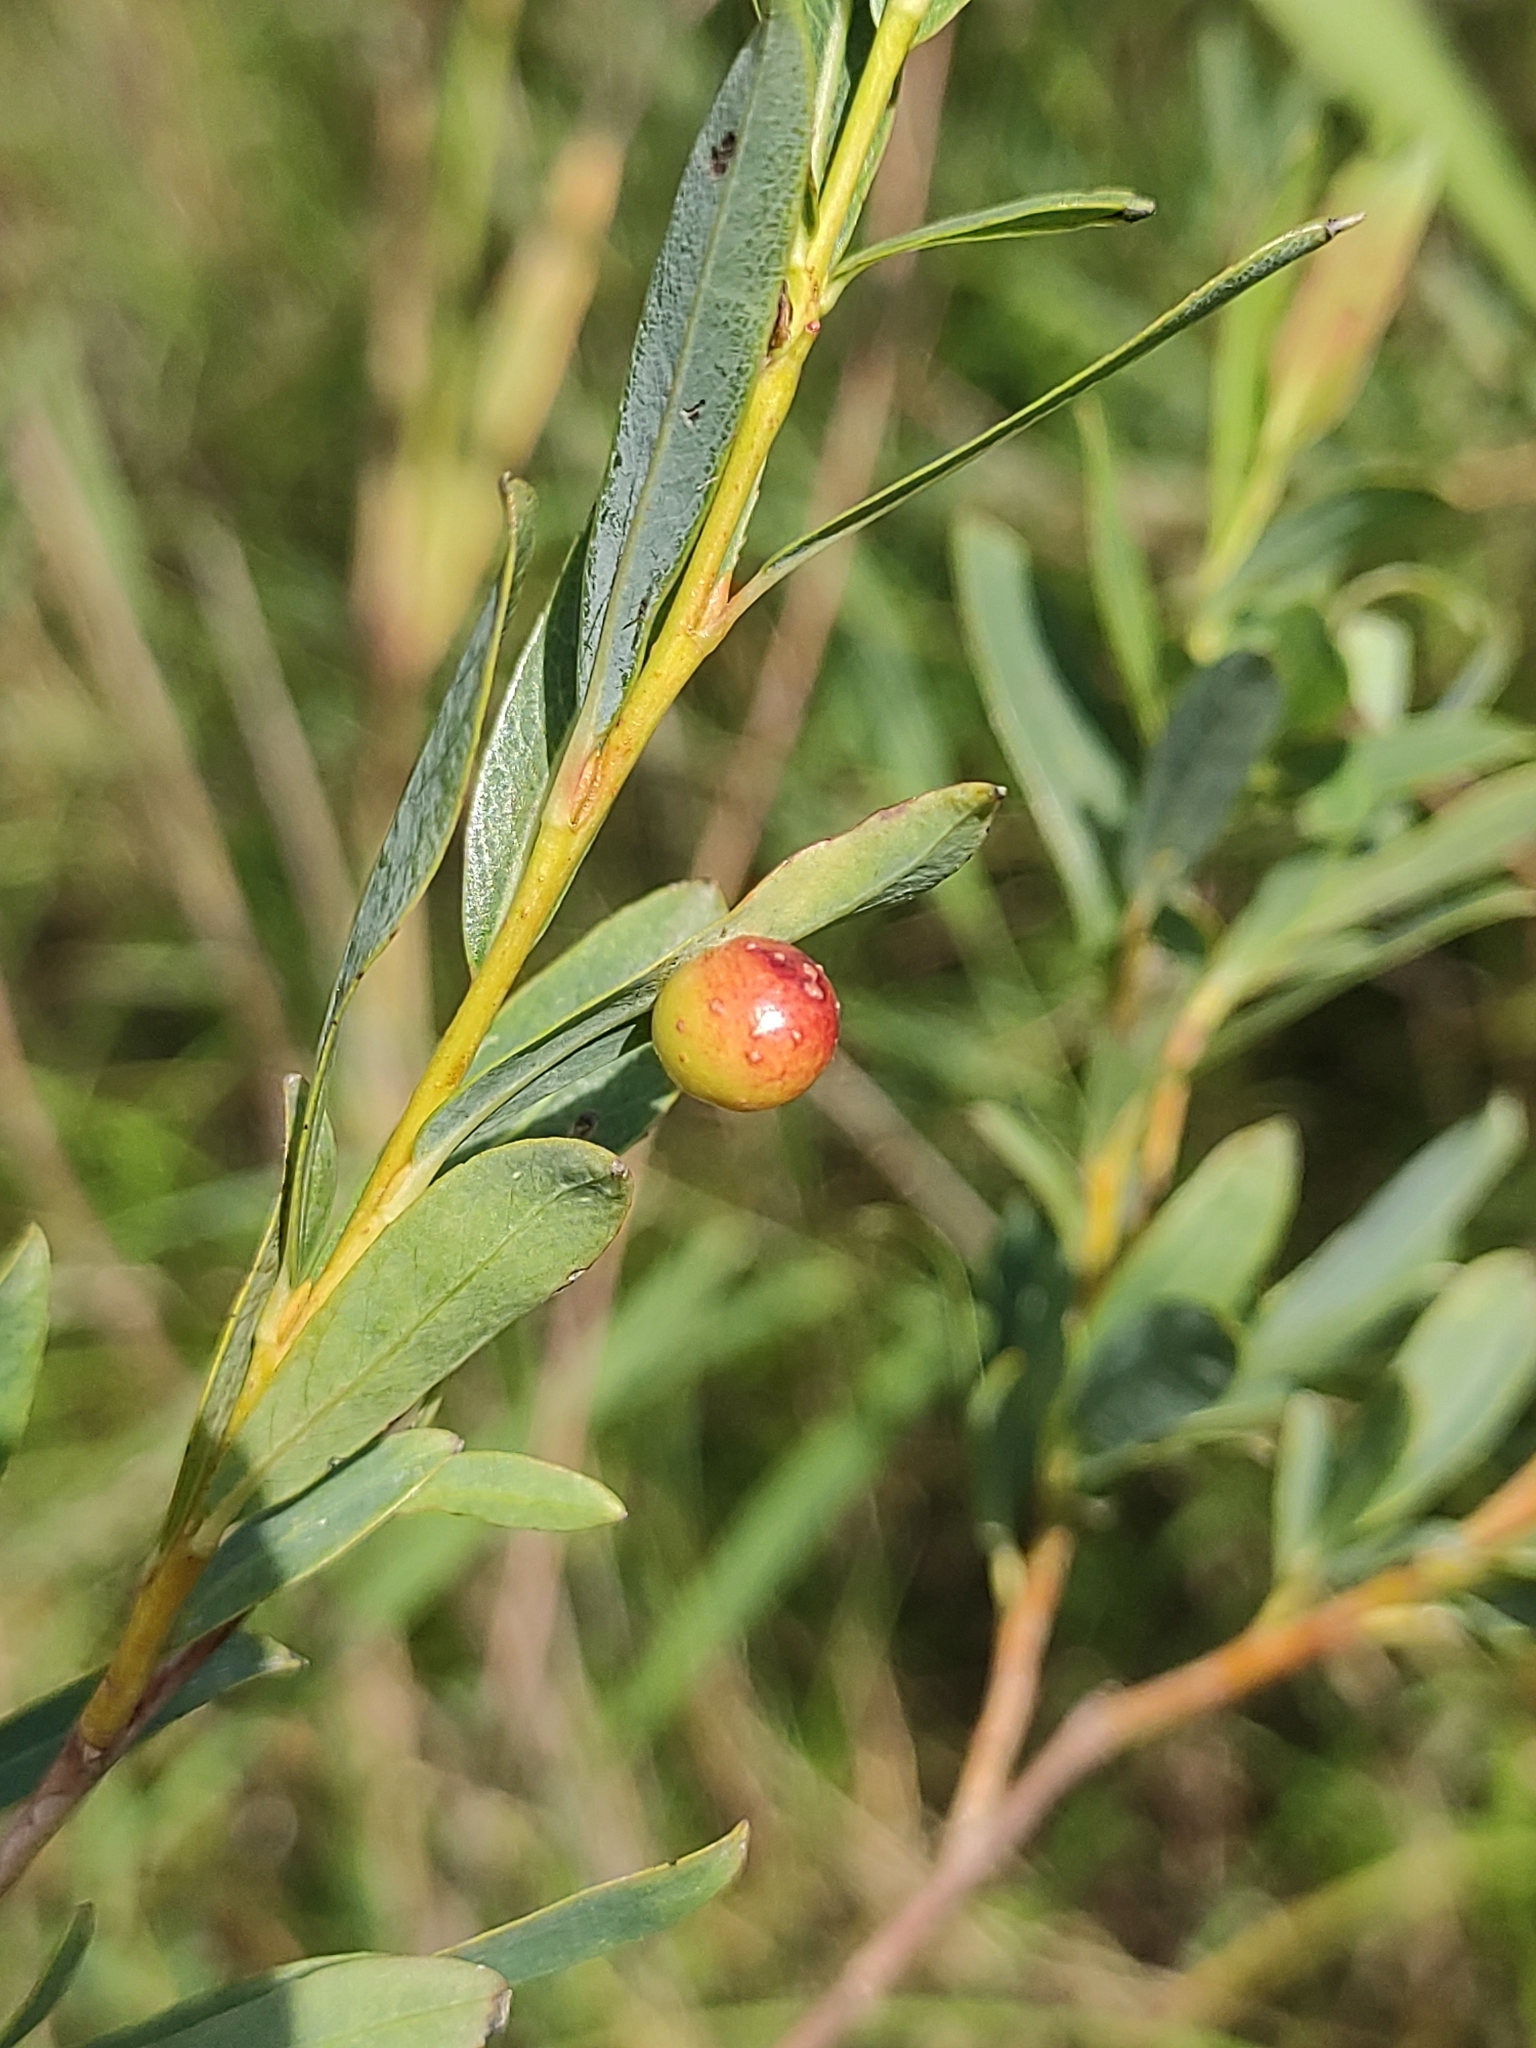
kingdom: Animalia
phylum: Arthropoda
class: Insecta
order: Hymenoptera
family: Tenthredinidae
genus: Euura
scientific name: Euura viminalis
